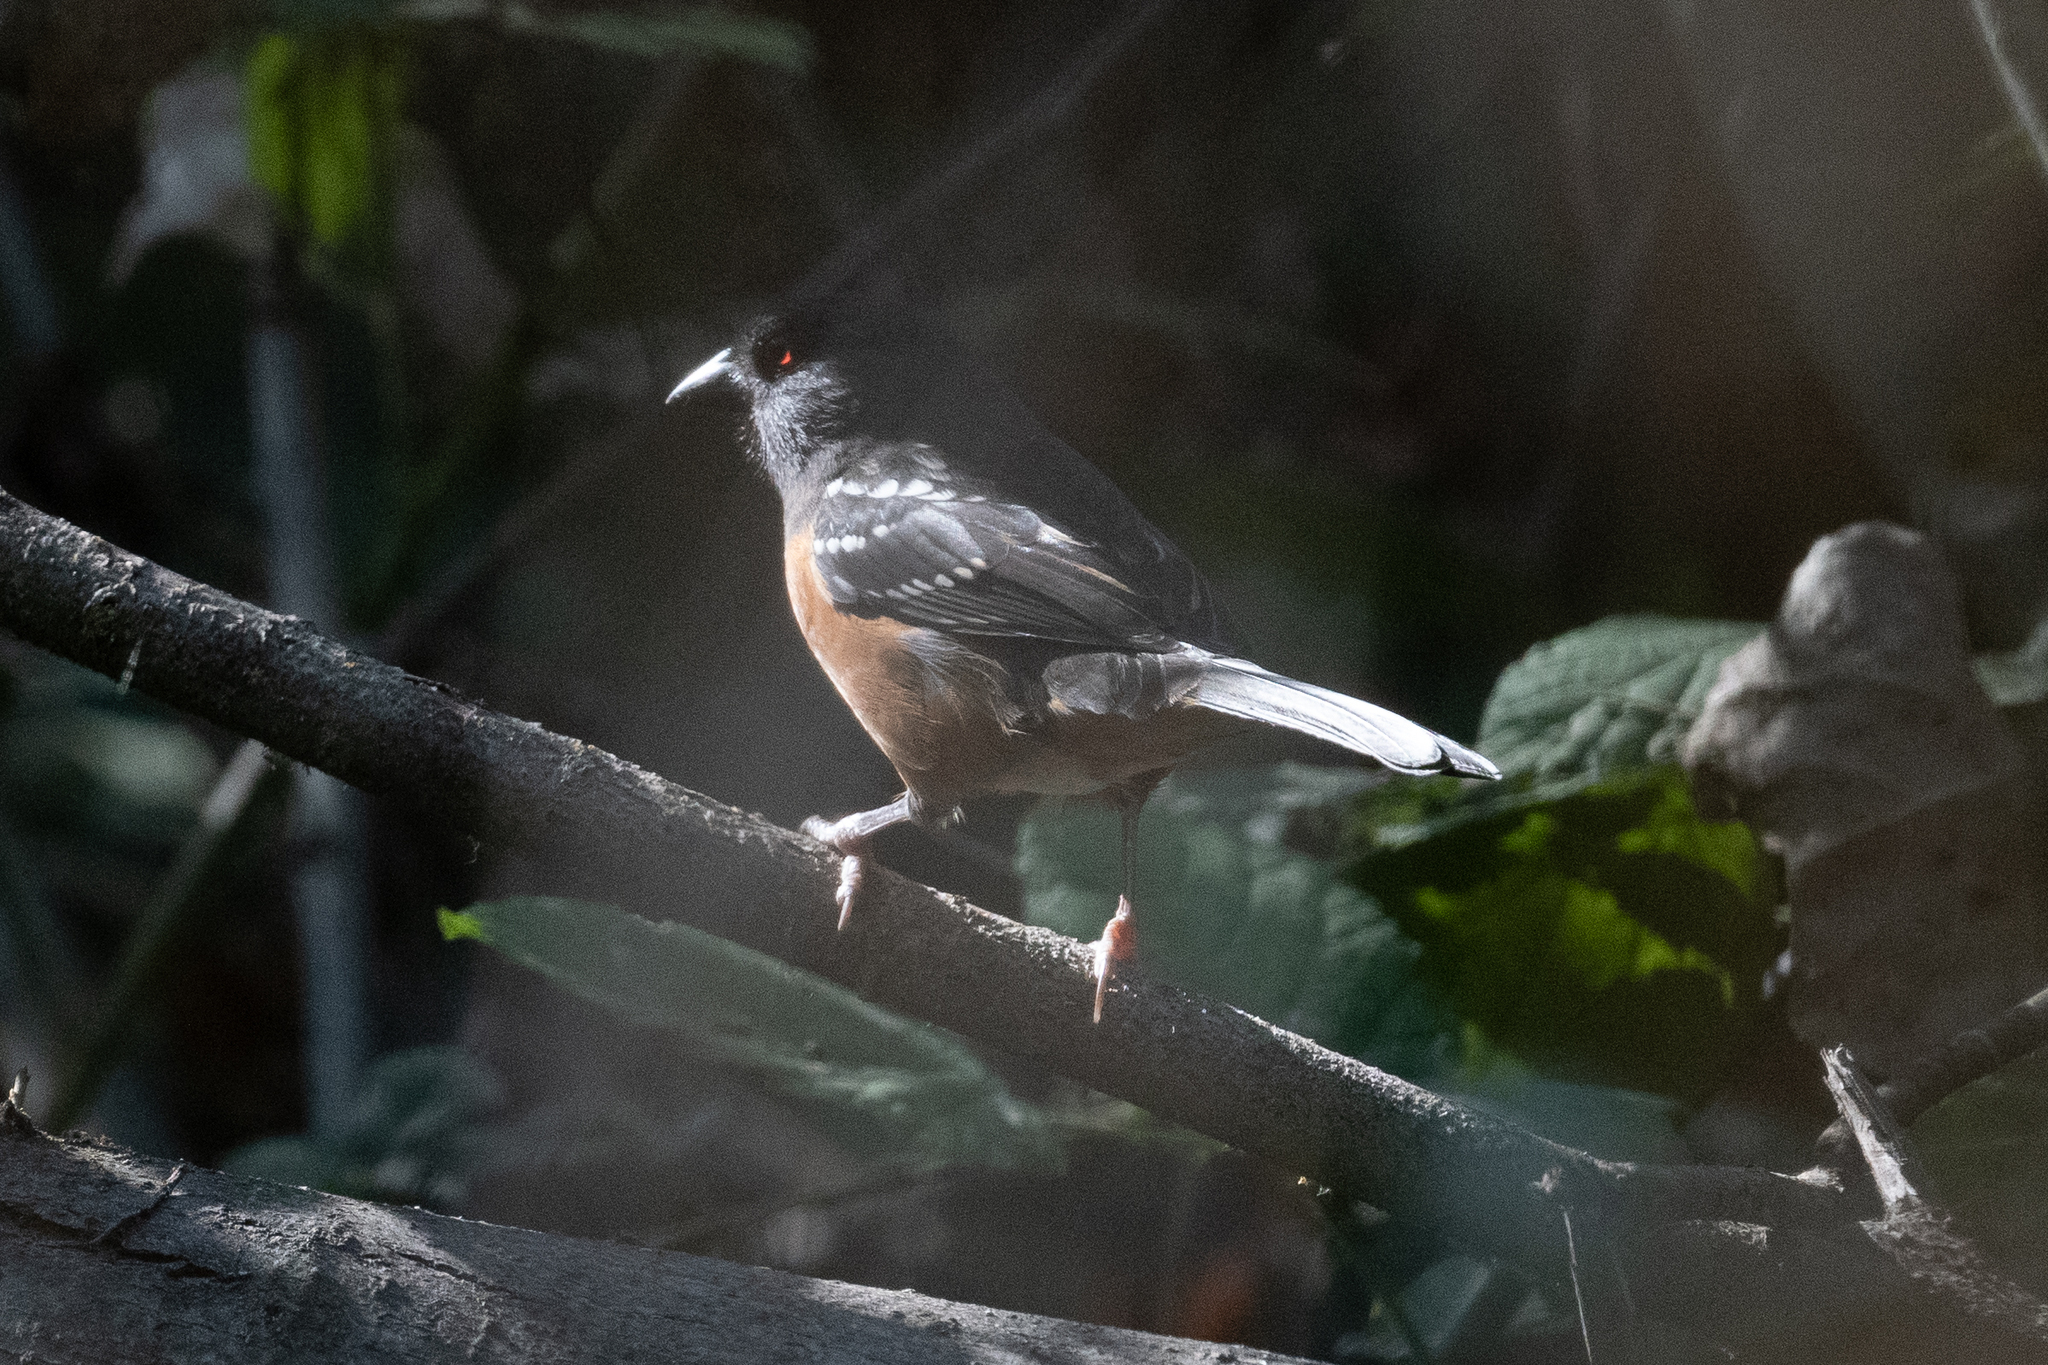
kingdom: Animalia
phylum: Chordata
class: Aves
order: Passeriformes
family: Passerellidae
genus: Pipilo
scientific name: Pipilo maculatus
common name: Spotted towhee
